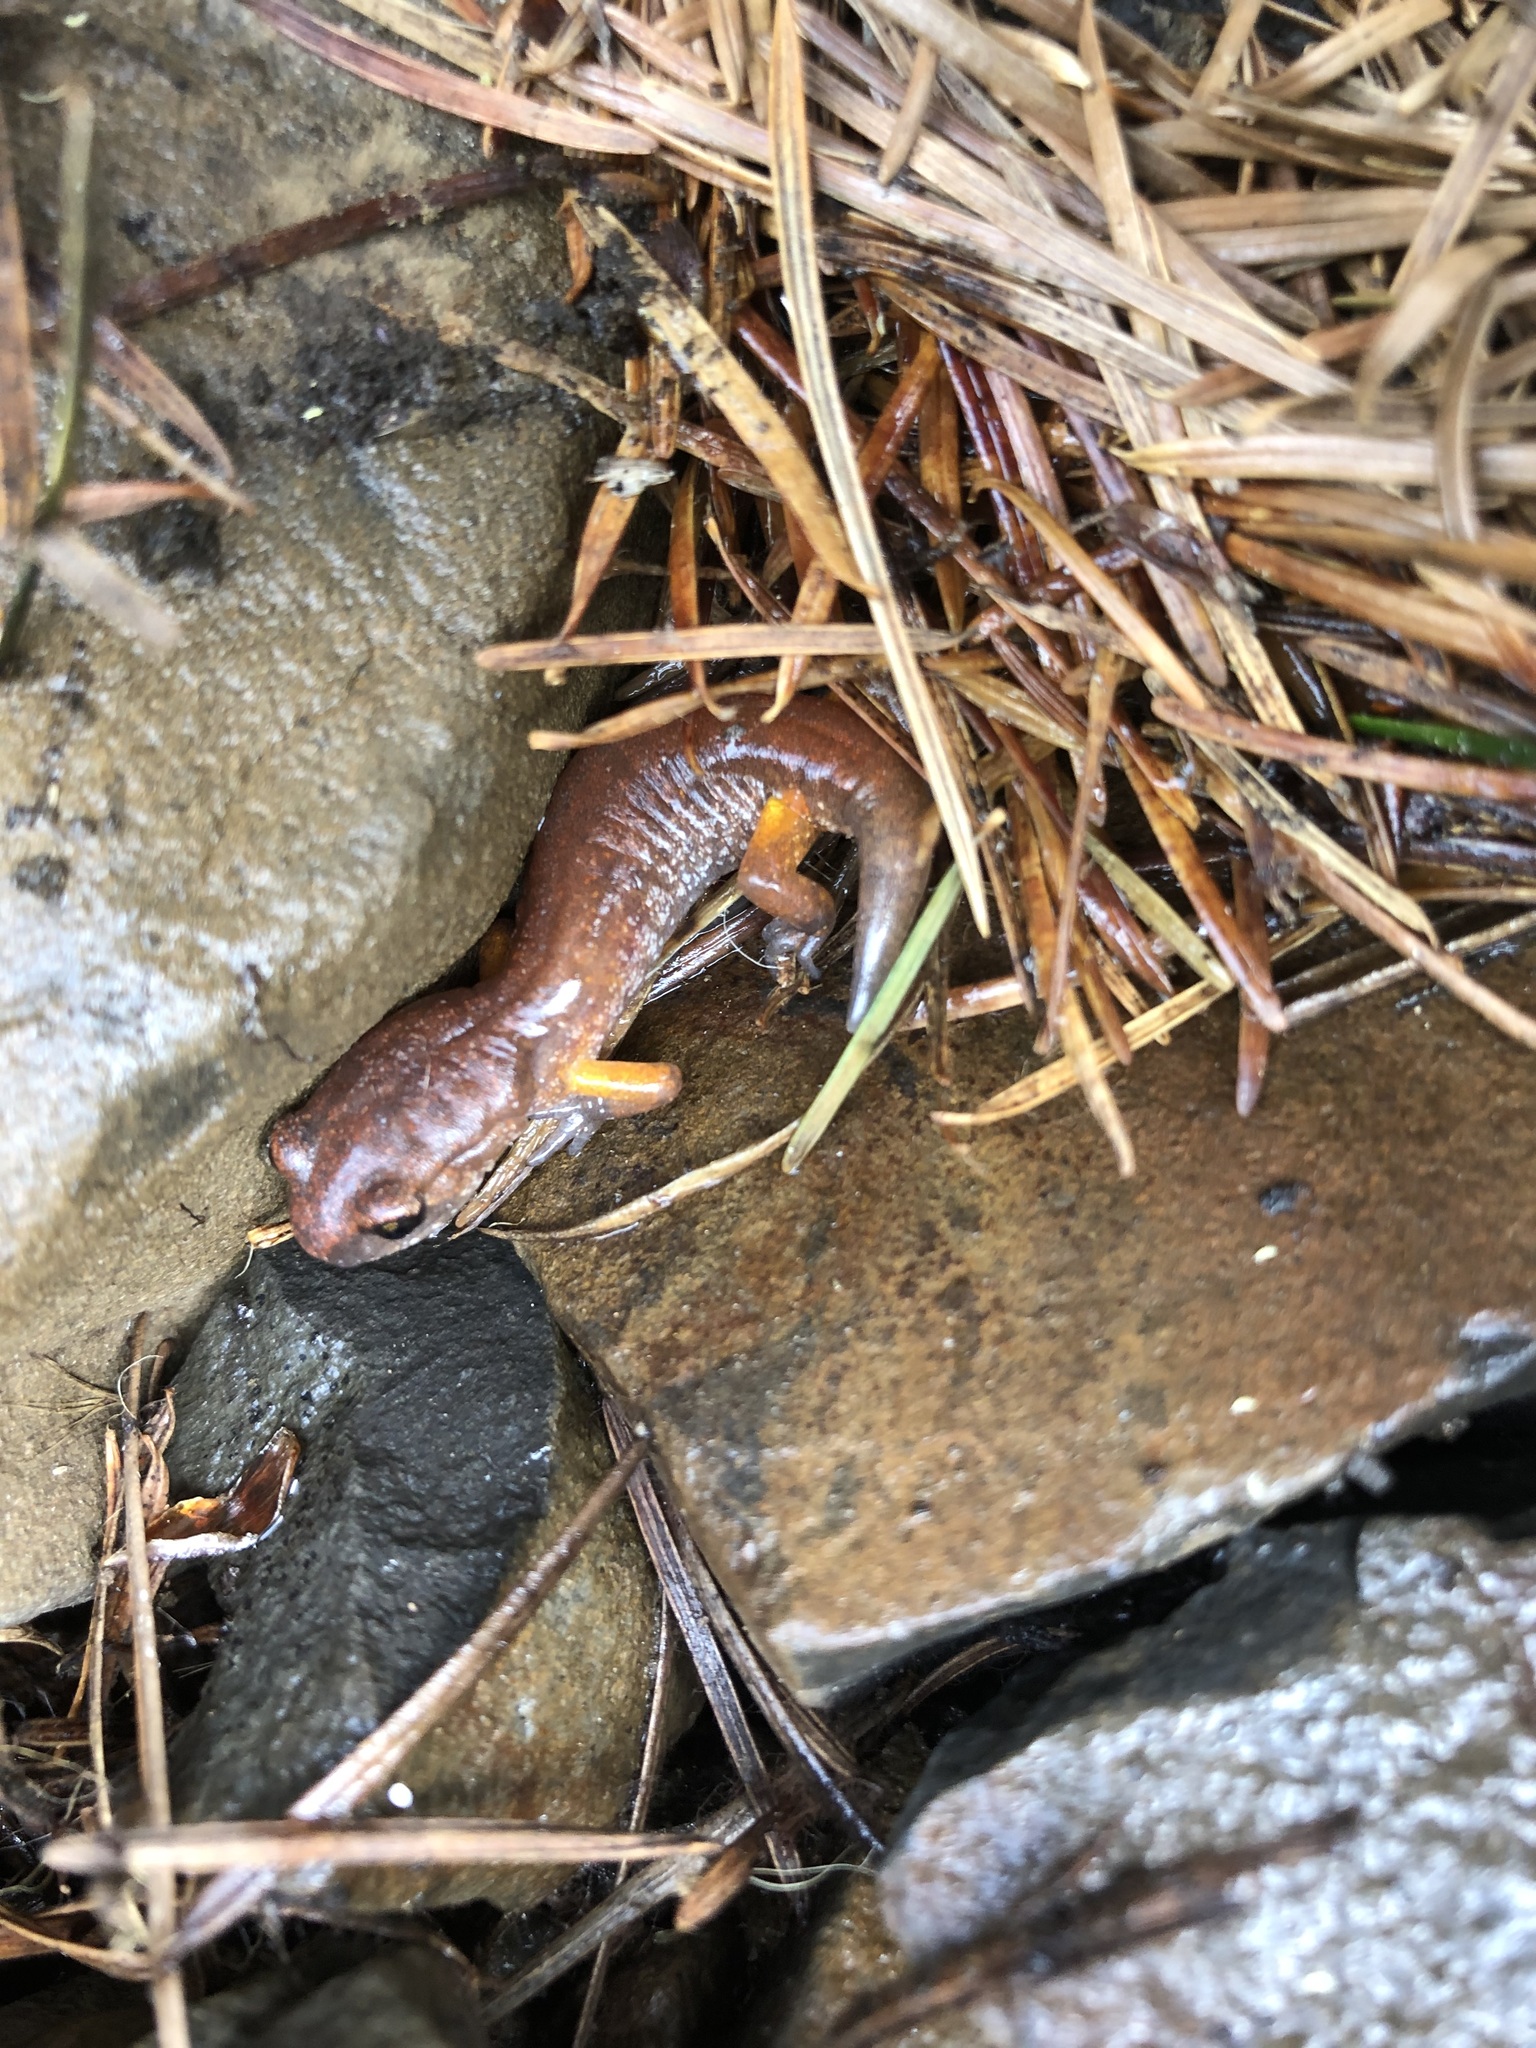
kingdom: Animalia
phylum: Chordata
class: Amphibia
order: Caudata
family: Plethodontidae
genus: Ensatina
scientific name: Ensatina eschscholtzii
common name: Ensatina
